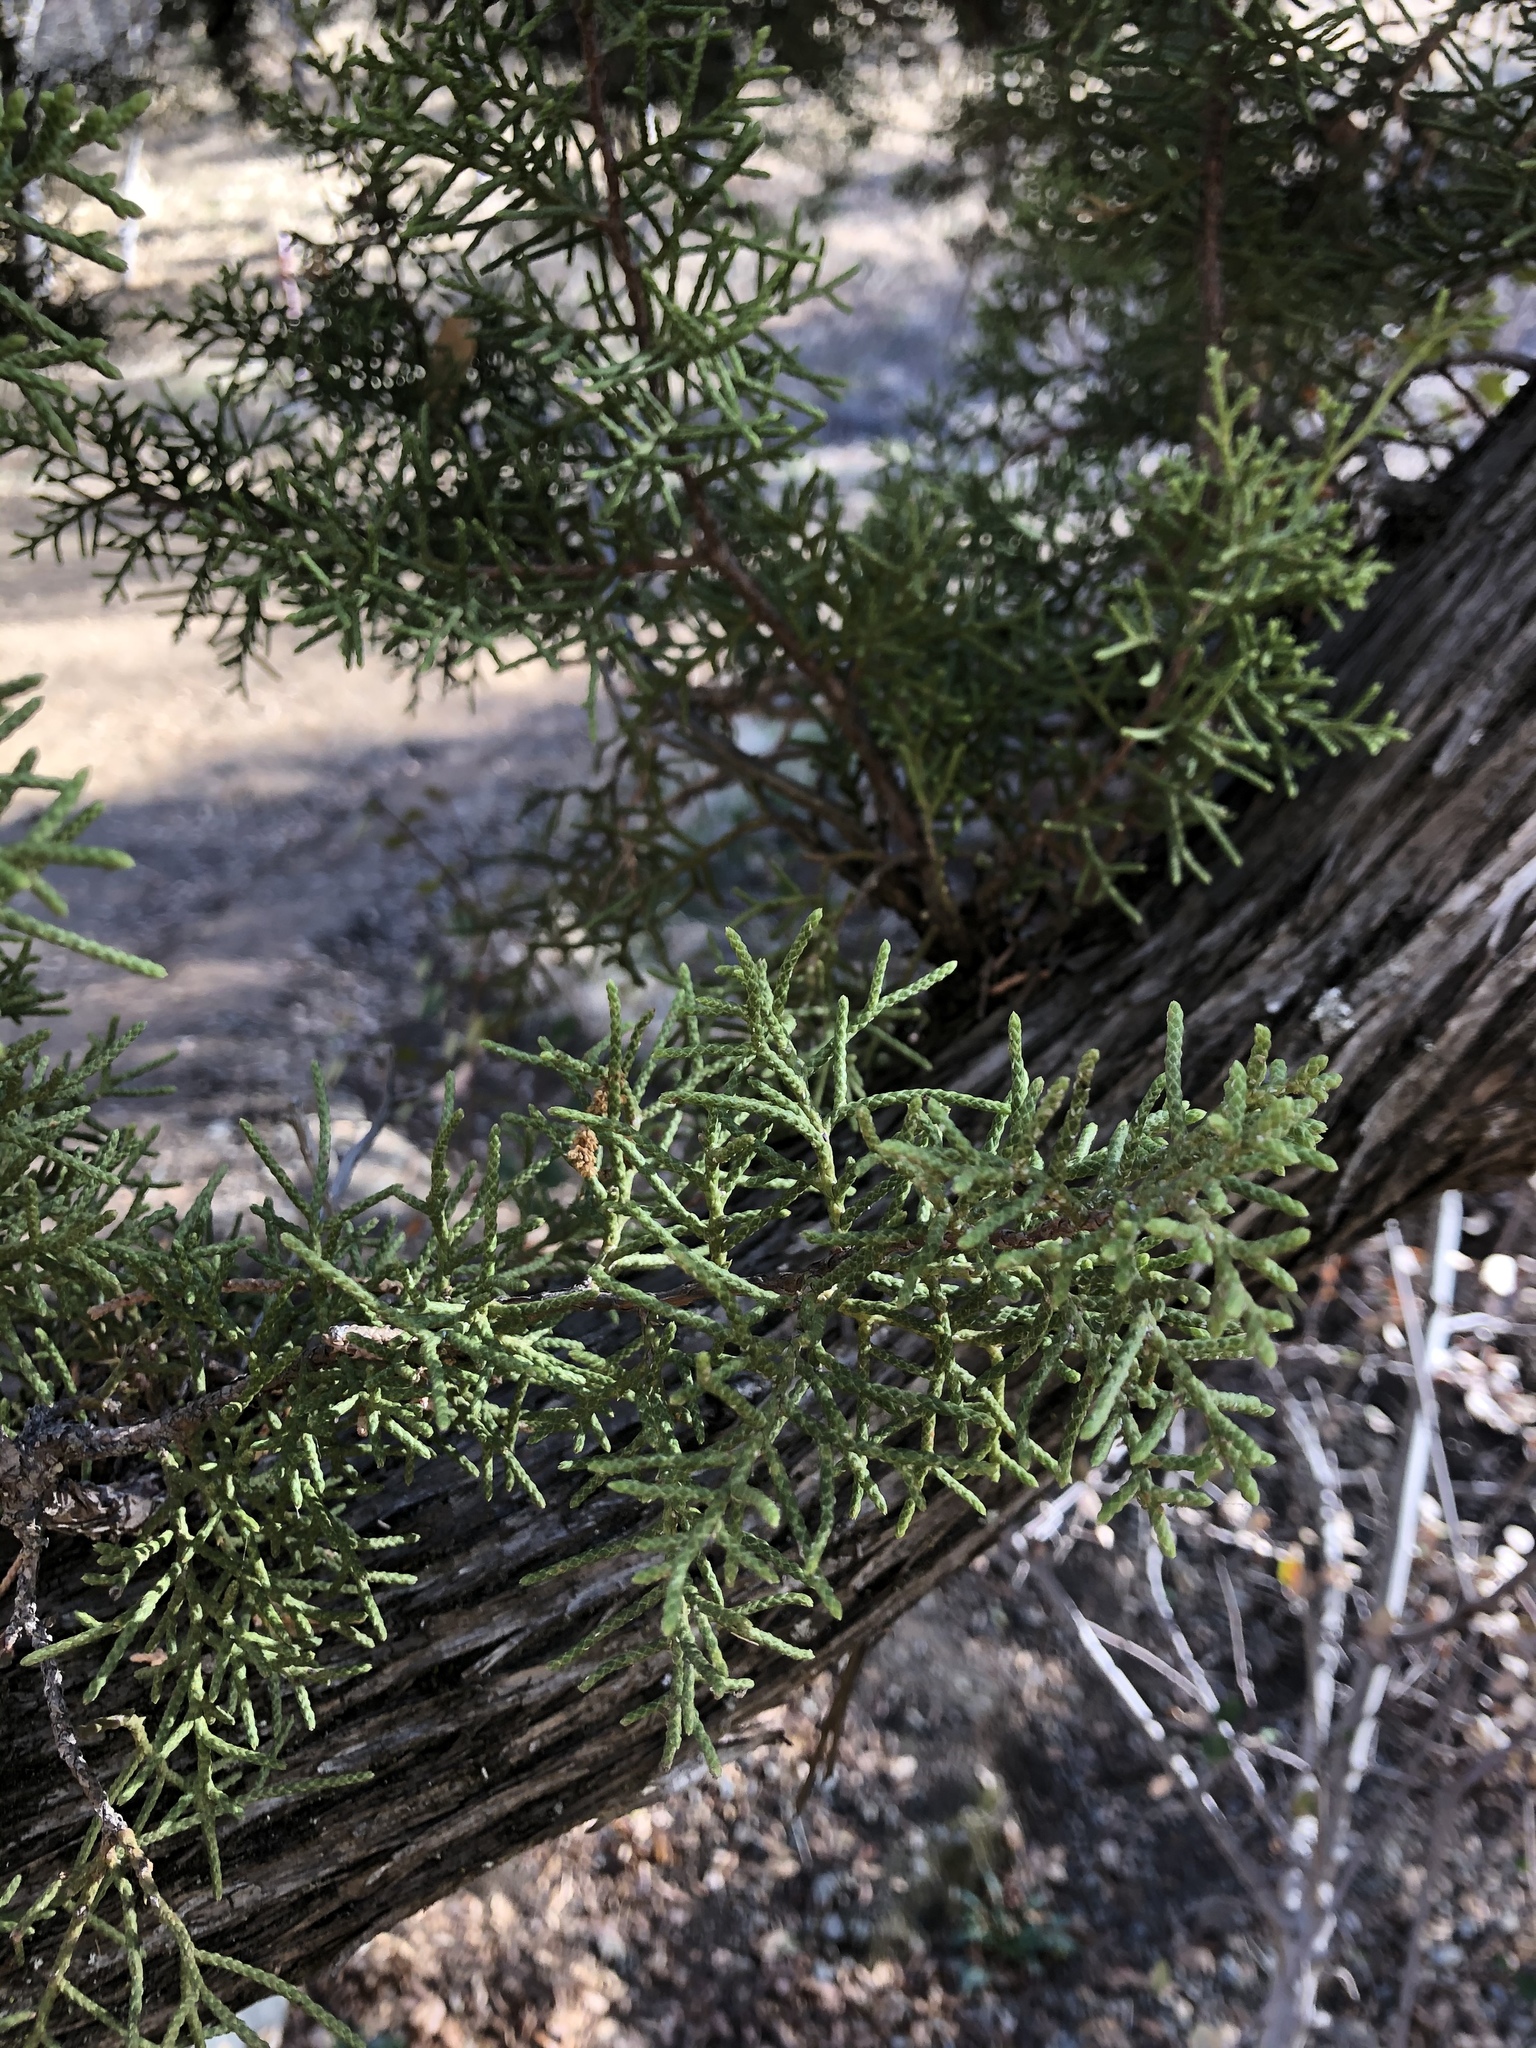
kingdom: Plantae
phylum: Tracheophyta
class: Pinopsida
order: Pinales
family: Cupressaceae
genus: Juniperus
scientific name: Juniperus californica
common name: California juniper
